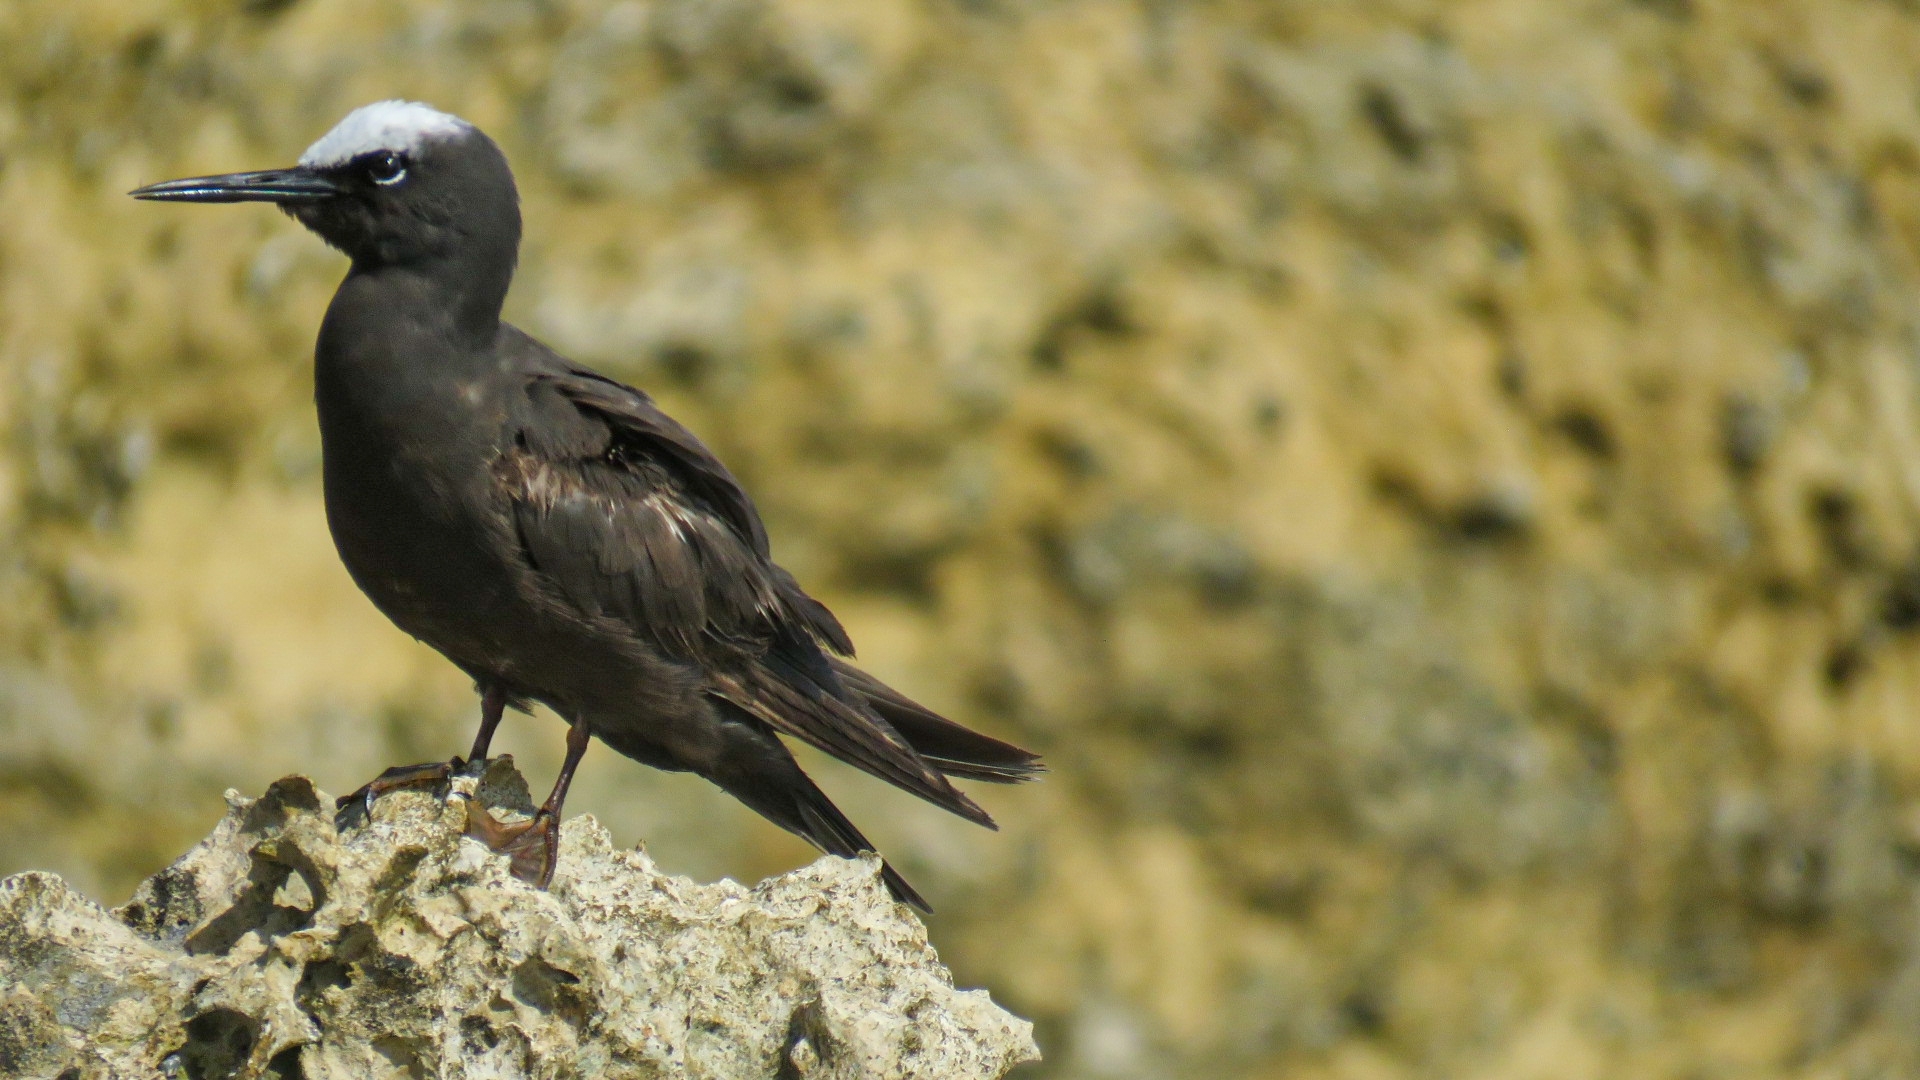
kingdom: Animalia
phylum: Chordata
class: Aves
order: Charadriiformes
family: Laridae
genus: Anous
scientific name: Anous minutus
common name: Black noddy
